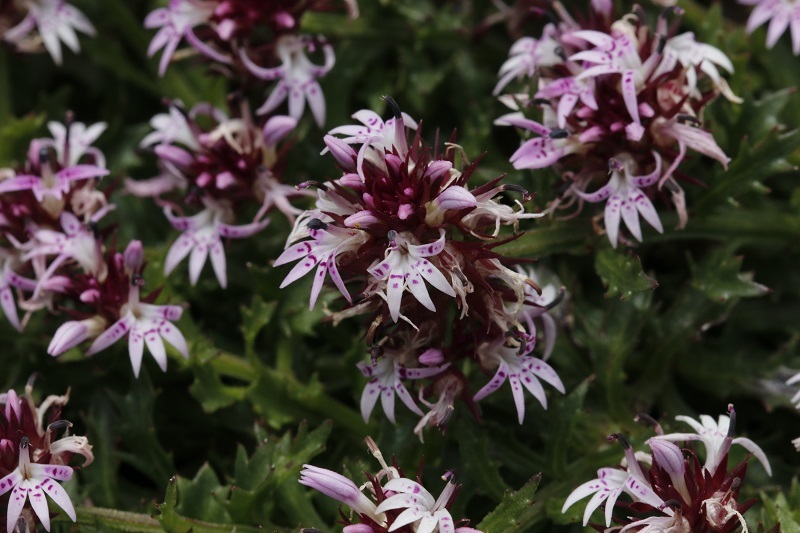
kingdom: Plantae
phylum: Tracheophyta
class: Magnoliopsida
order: Asterales
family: Campanulaceae
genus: Lobelia
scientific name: Lobelia jasionoides
